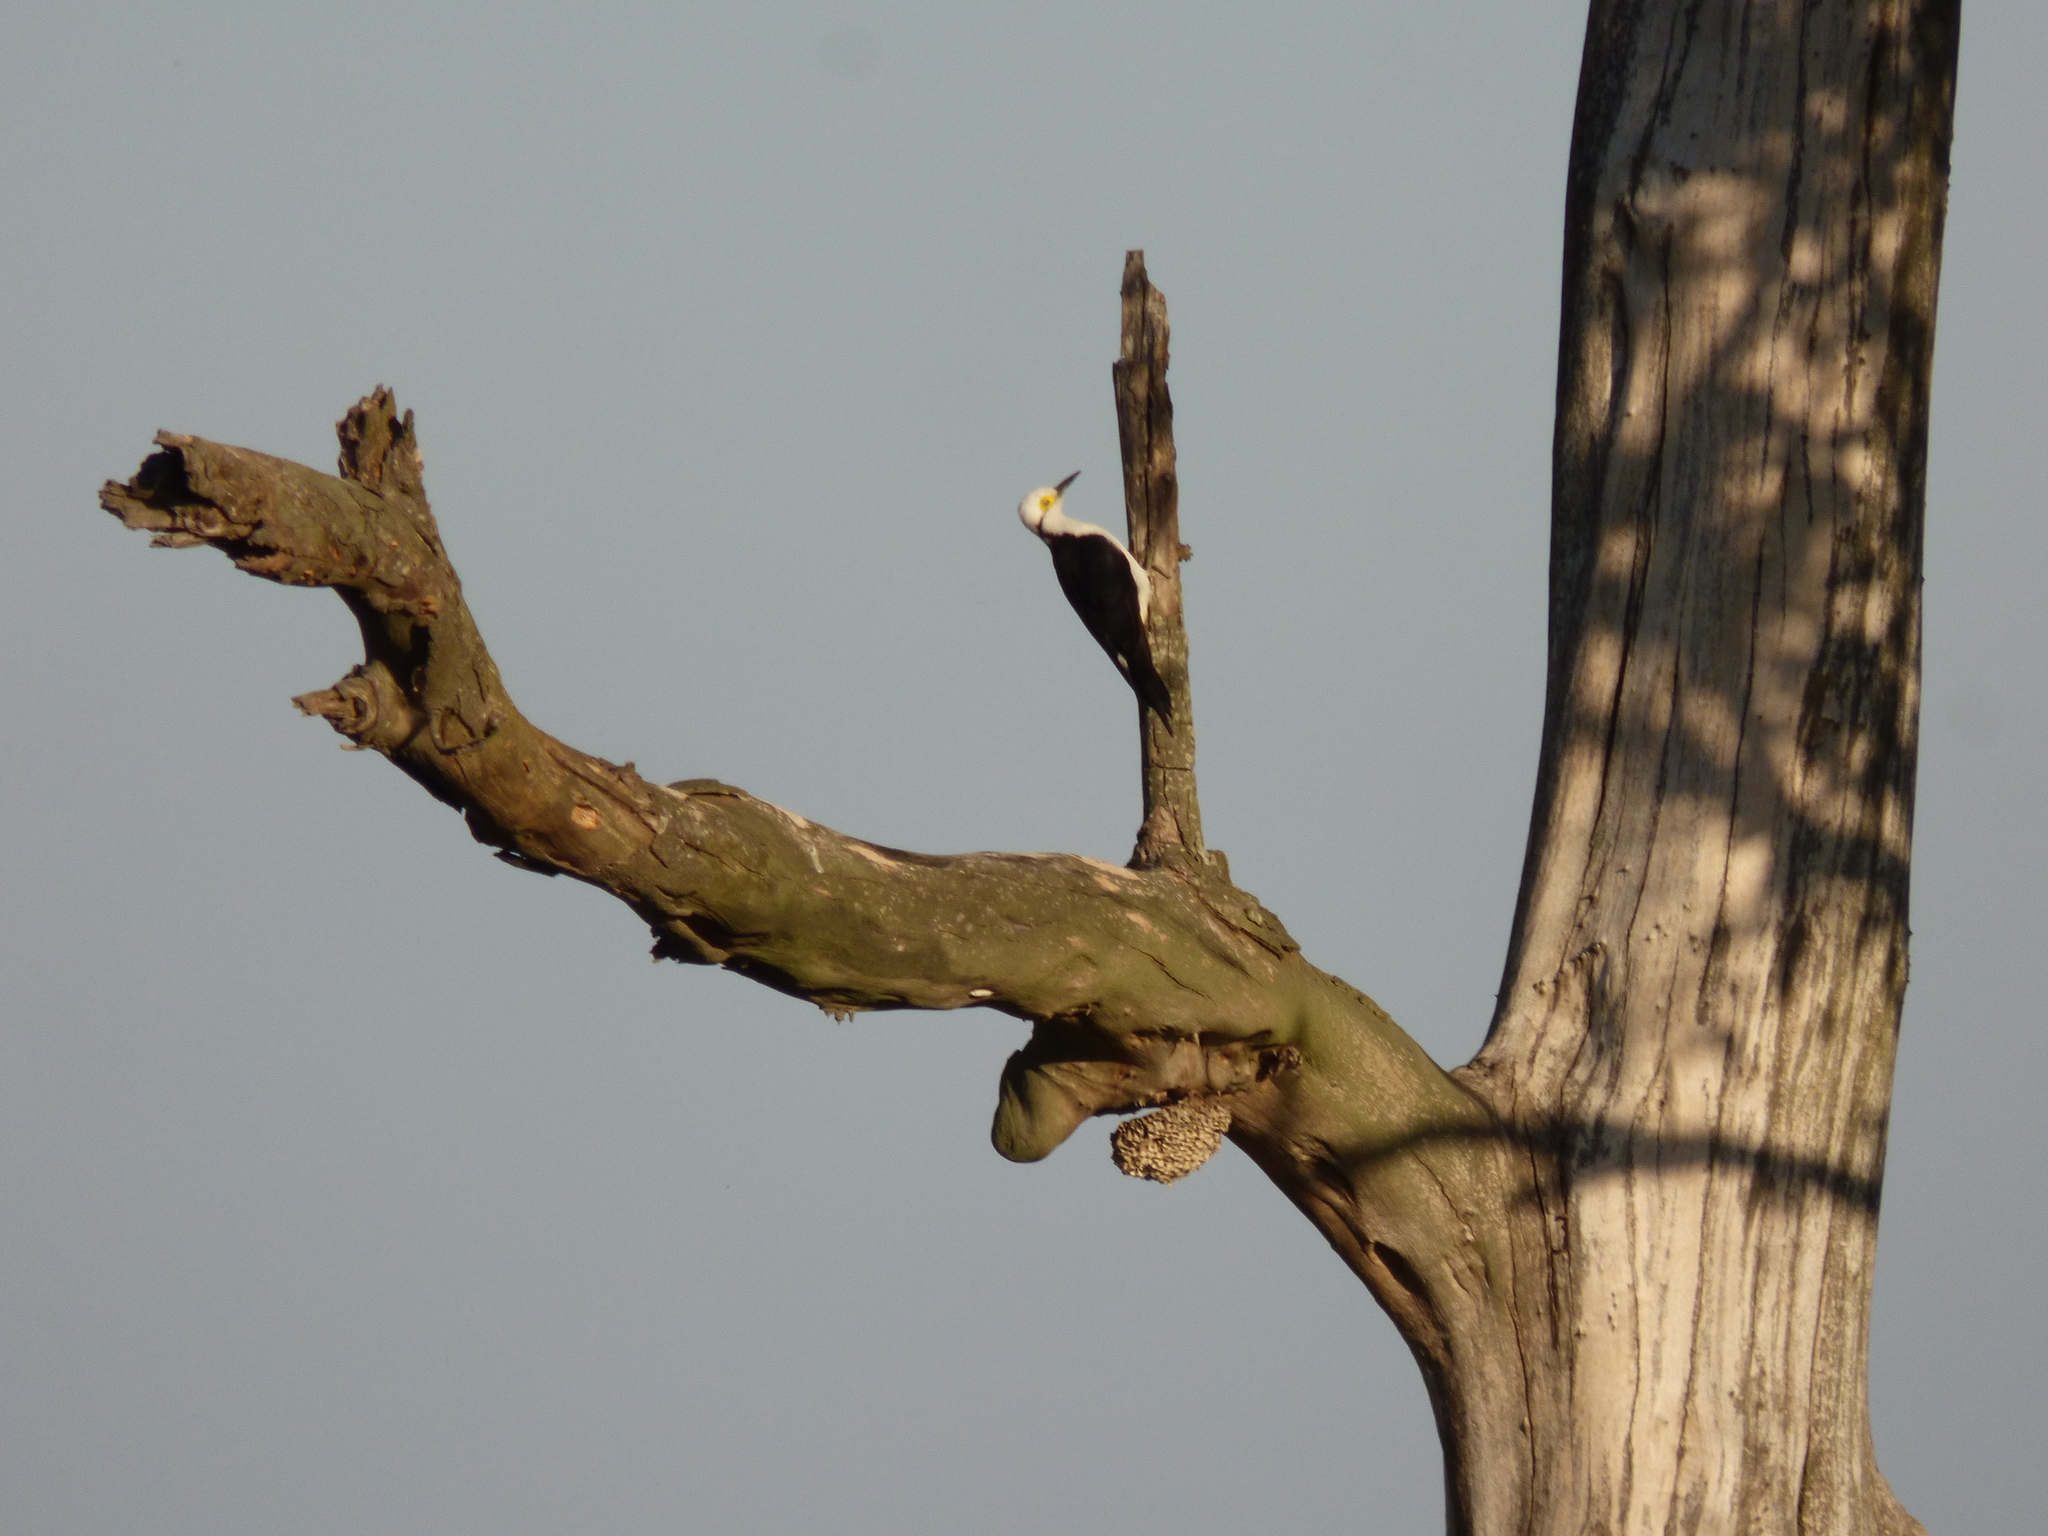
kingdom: Animalia
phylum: Chordata
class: Aves
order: Piciformes
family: Picidae
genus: Melanerpes
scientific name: Melanerpes candidus
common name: White woodpecker
